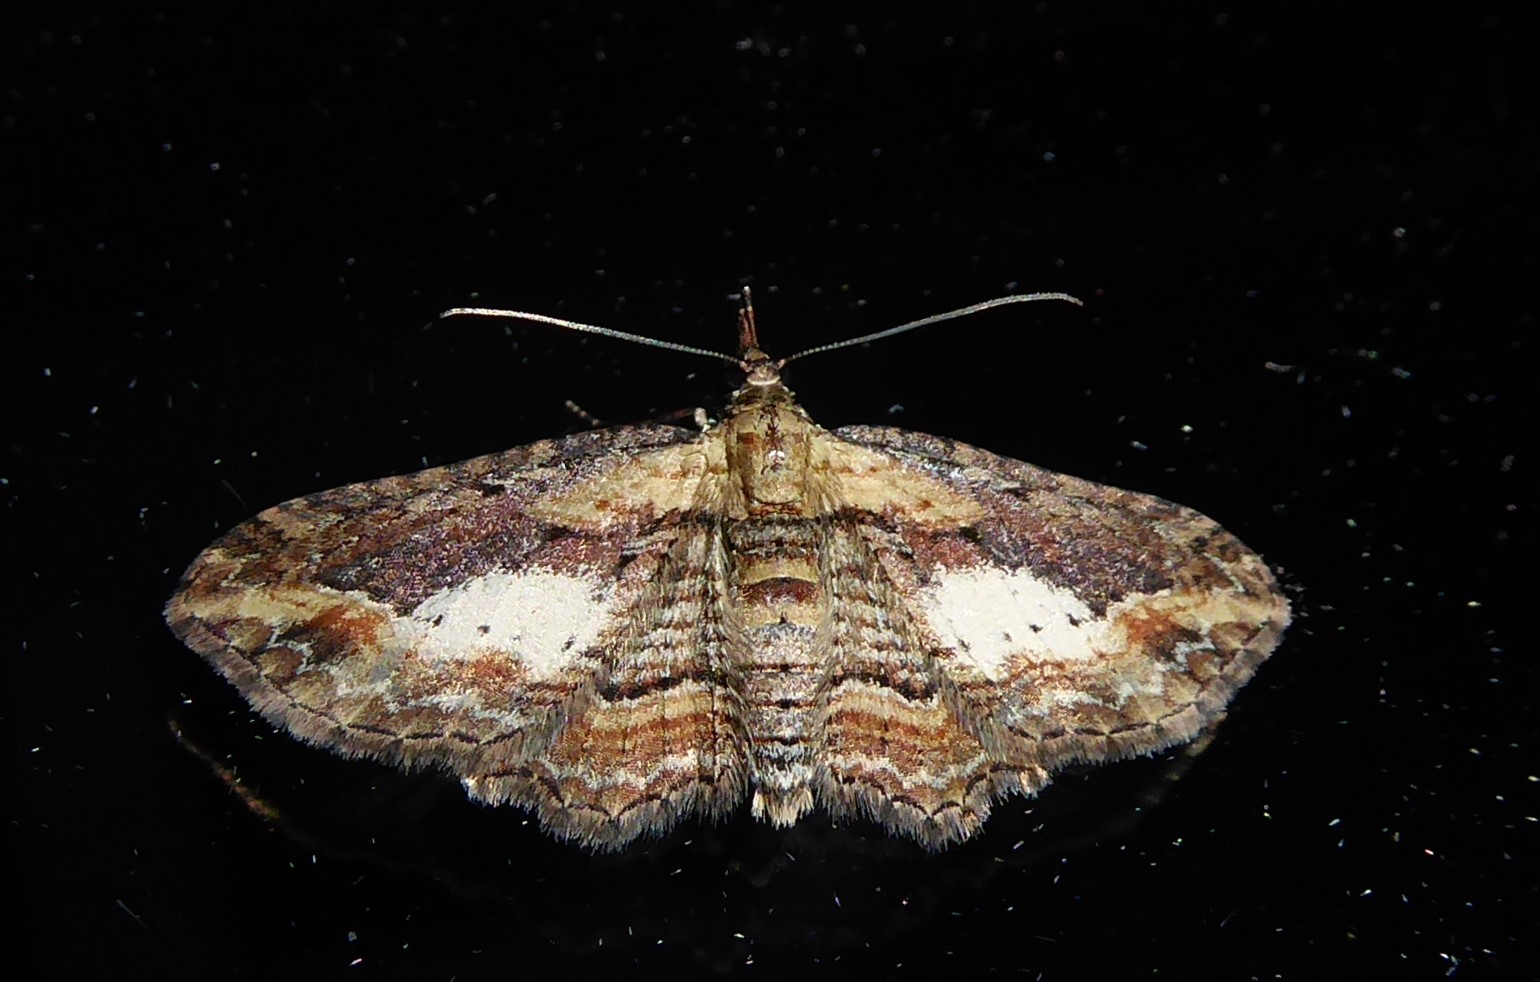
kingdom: Animalia
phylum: Arthropoda
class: Insecta
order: Lepidoptera
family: Geometridae
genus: Chloroclystis
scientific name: Chloroclystis filata
